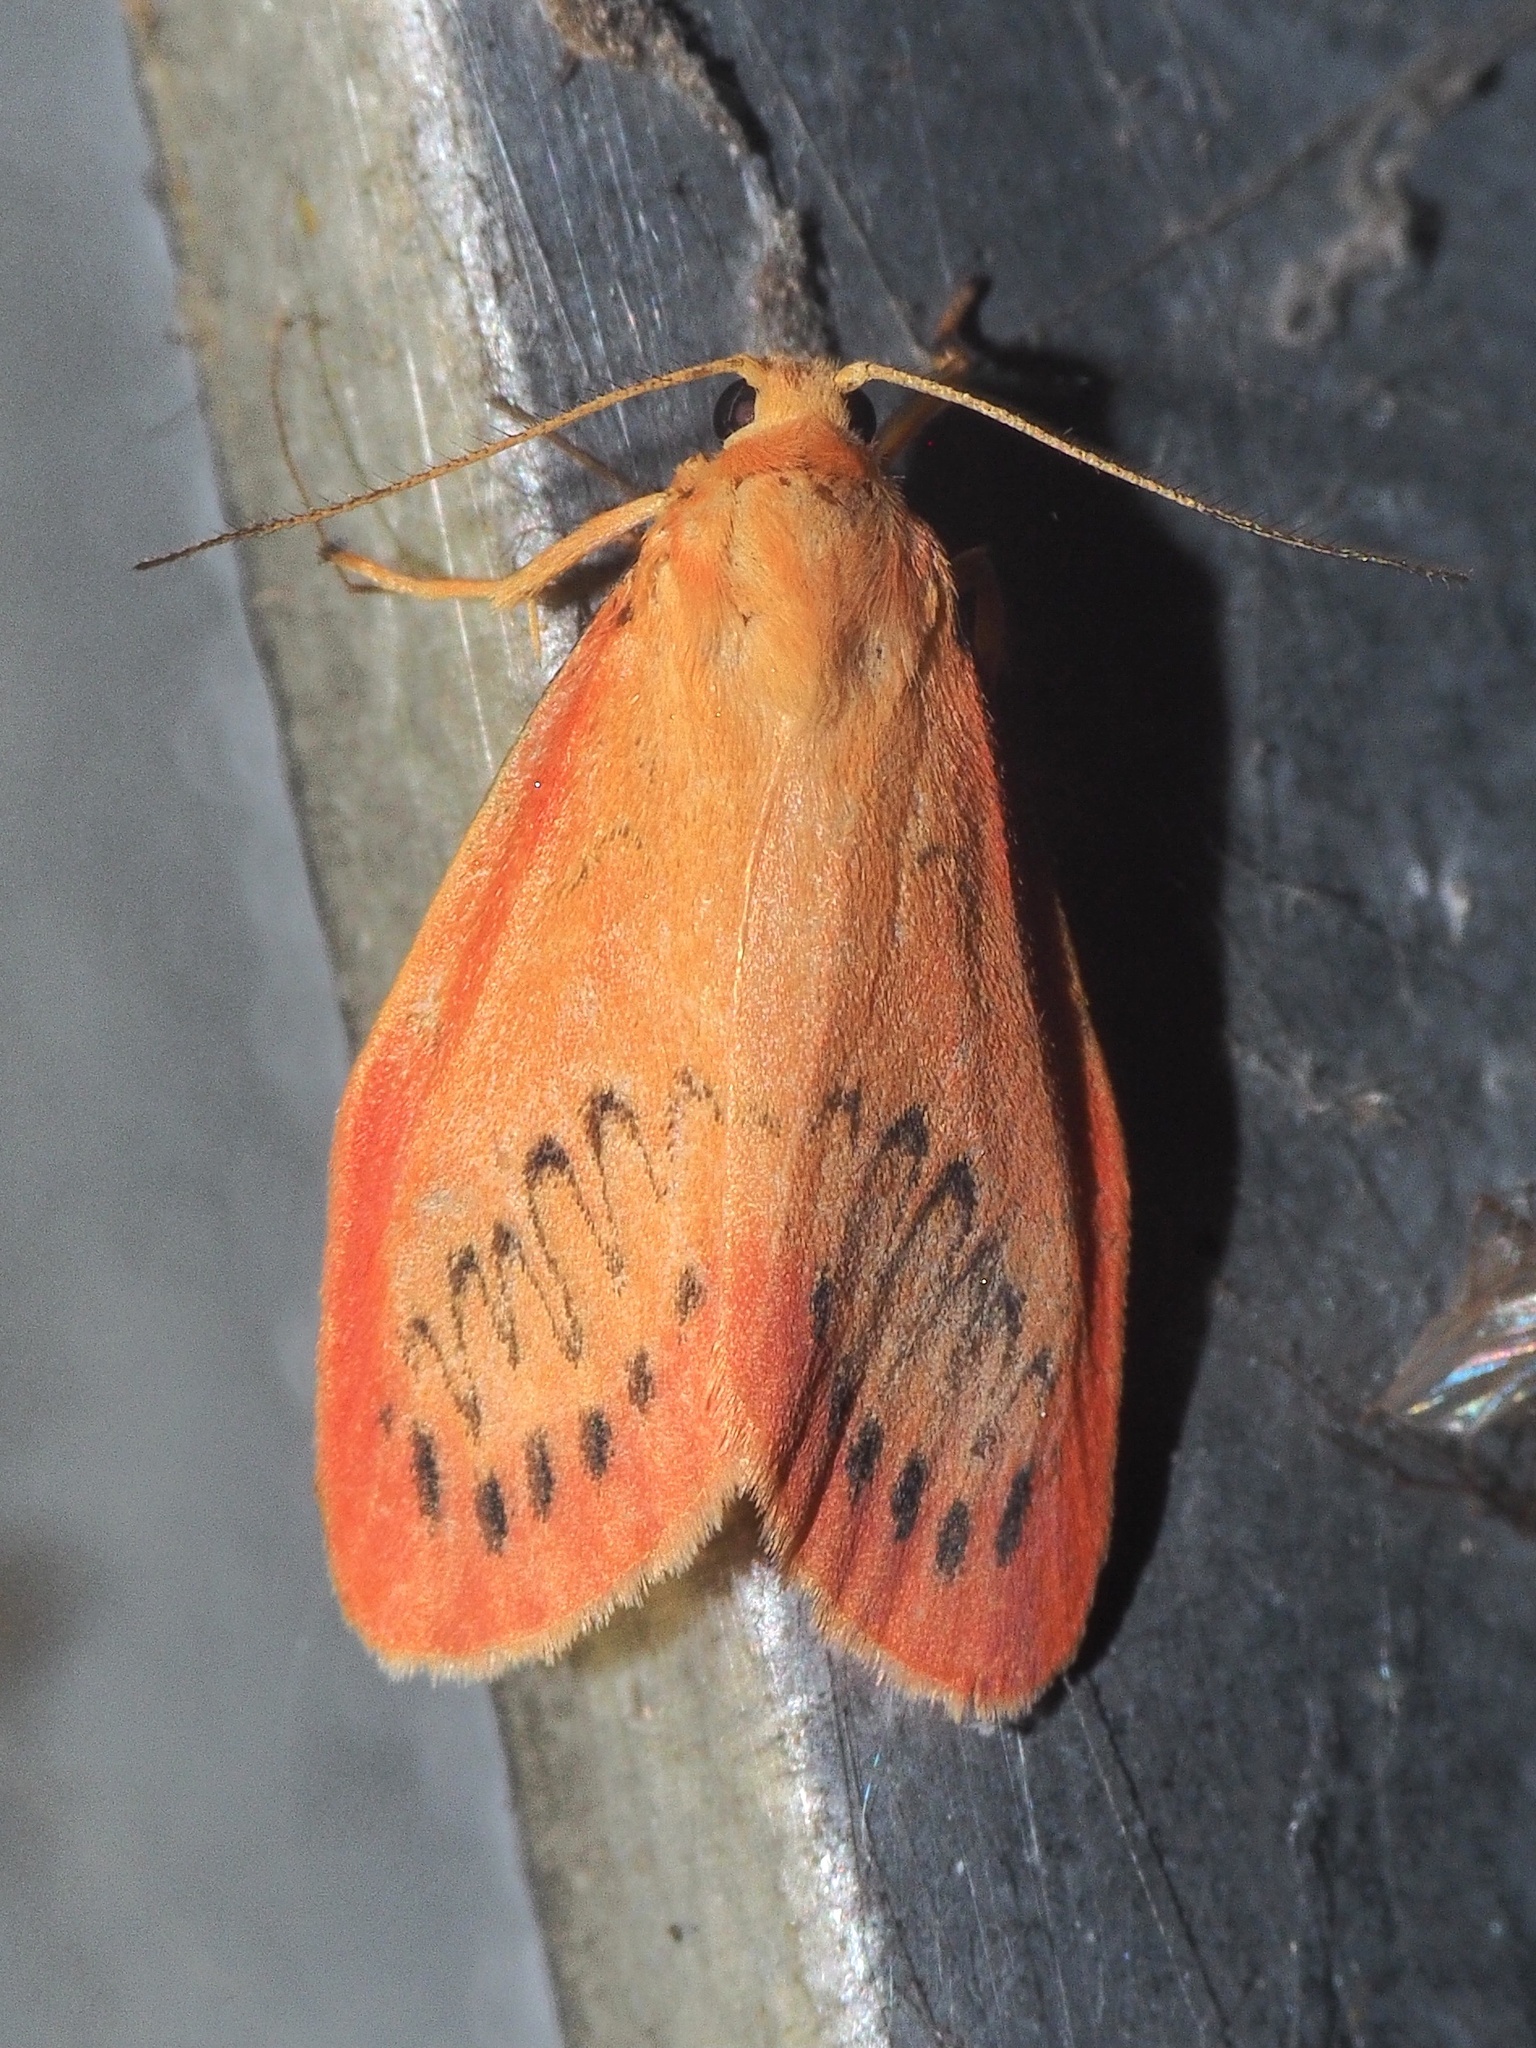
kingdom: Animalia
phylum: Arthropoda
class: Insecta
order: Lepidoptera
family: Erebidae
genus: Miltochrista
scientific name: Miltochrista miniata
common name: Rosy footman
